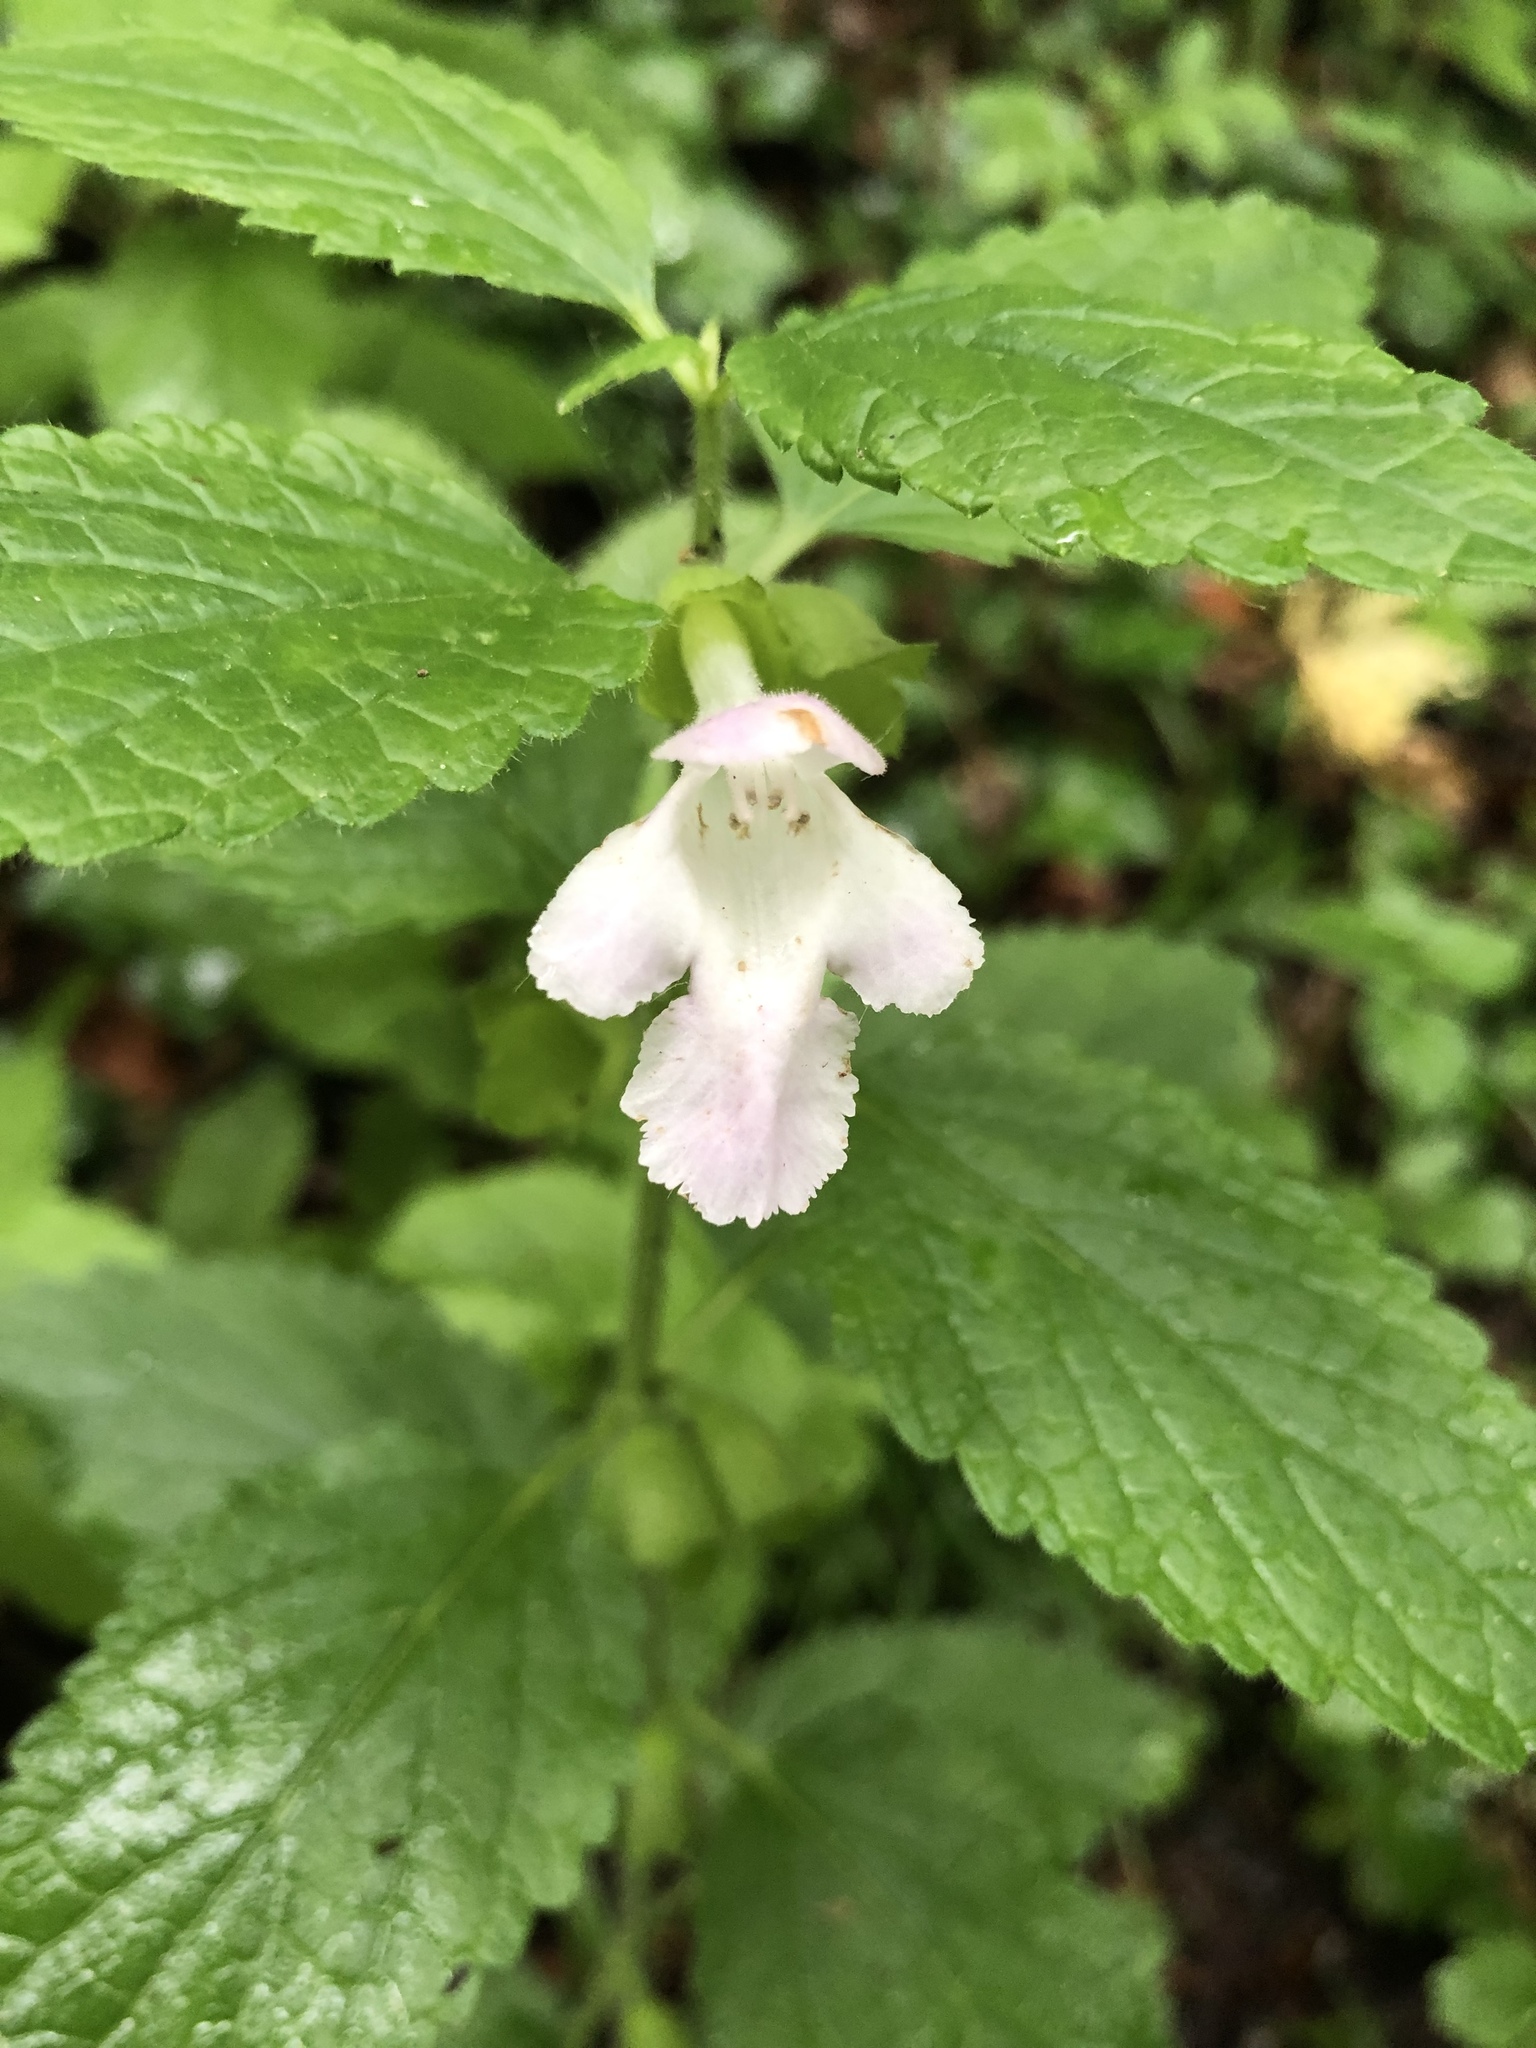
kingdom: Plantae
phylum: Tracheophyta
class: Magnoliopsida
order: Lamiales
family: Lamiaceae
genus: Melittis
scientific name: Melittis melissophyllum
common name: Bastard balm
